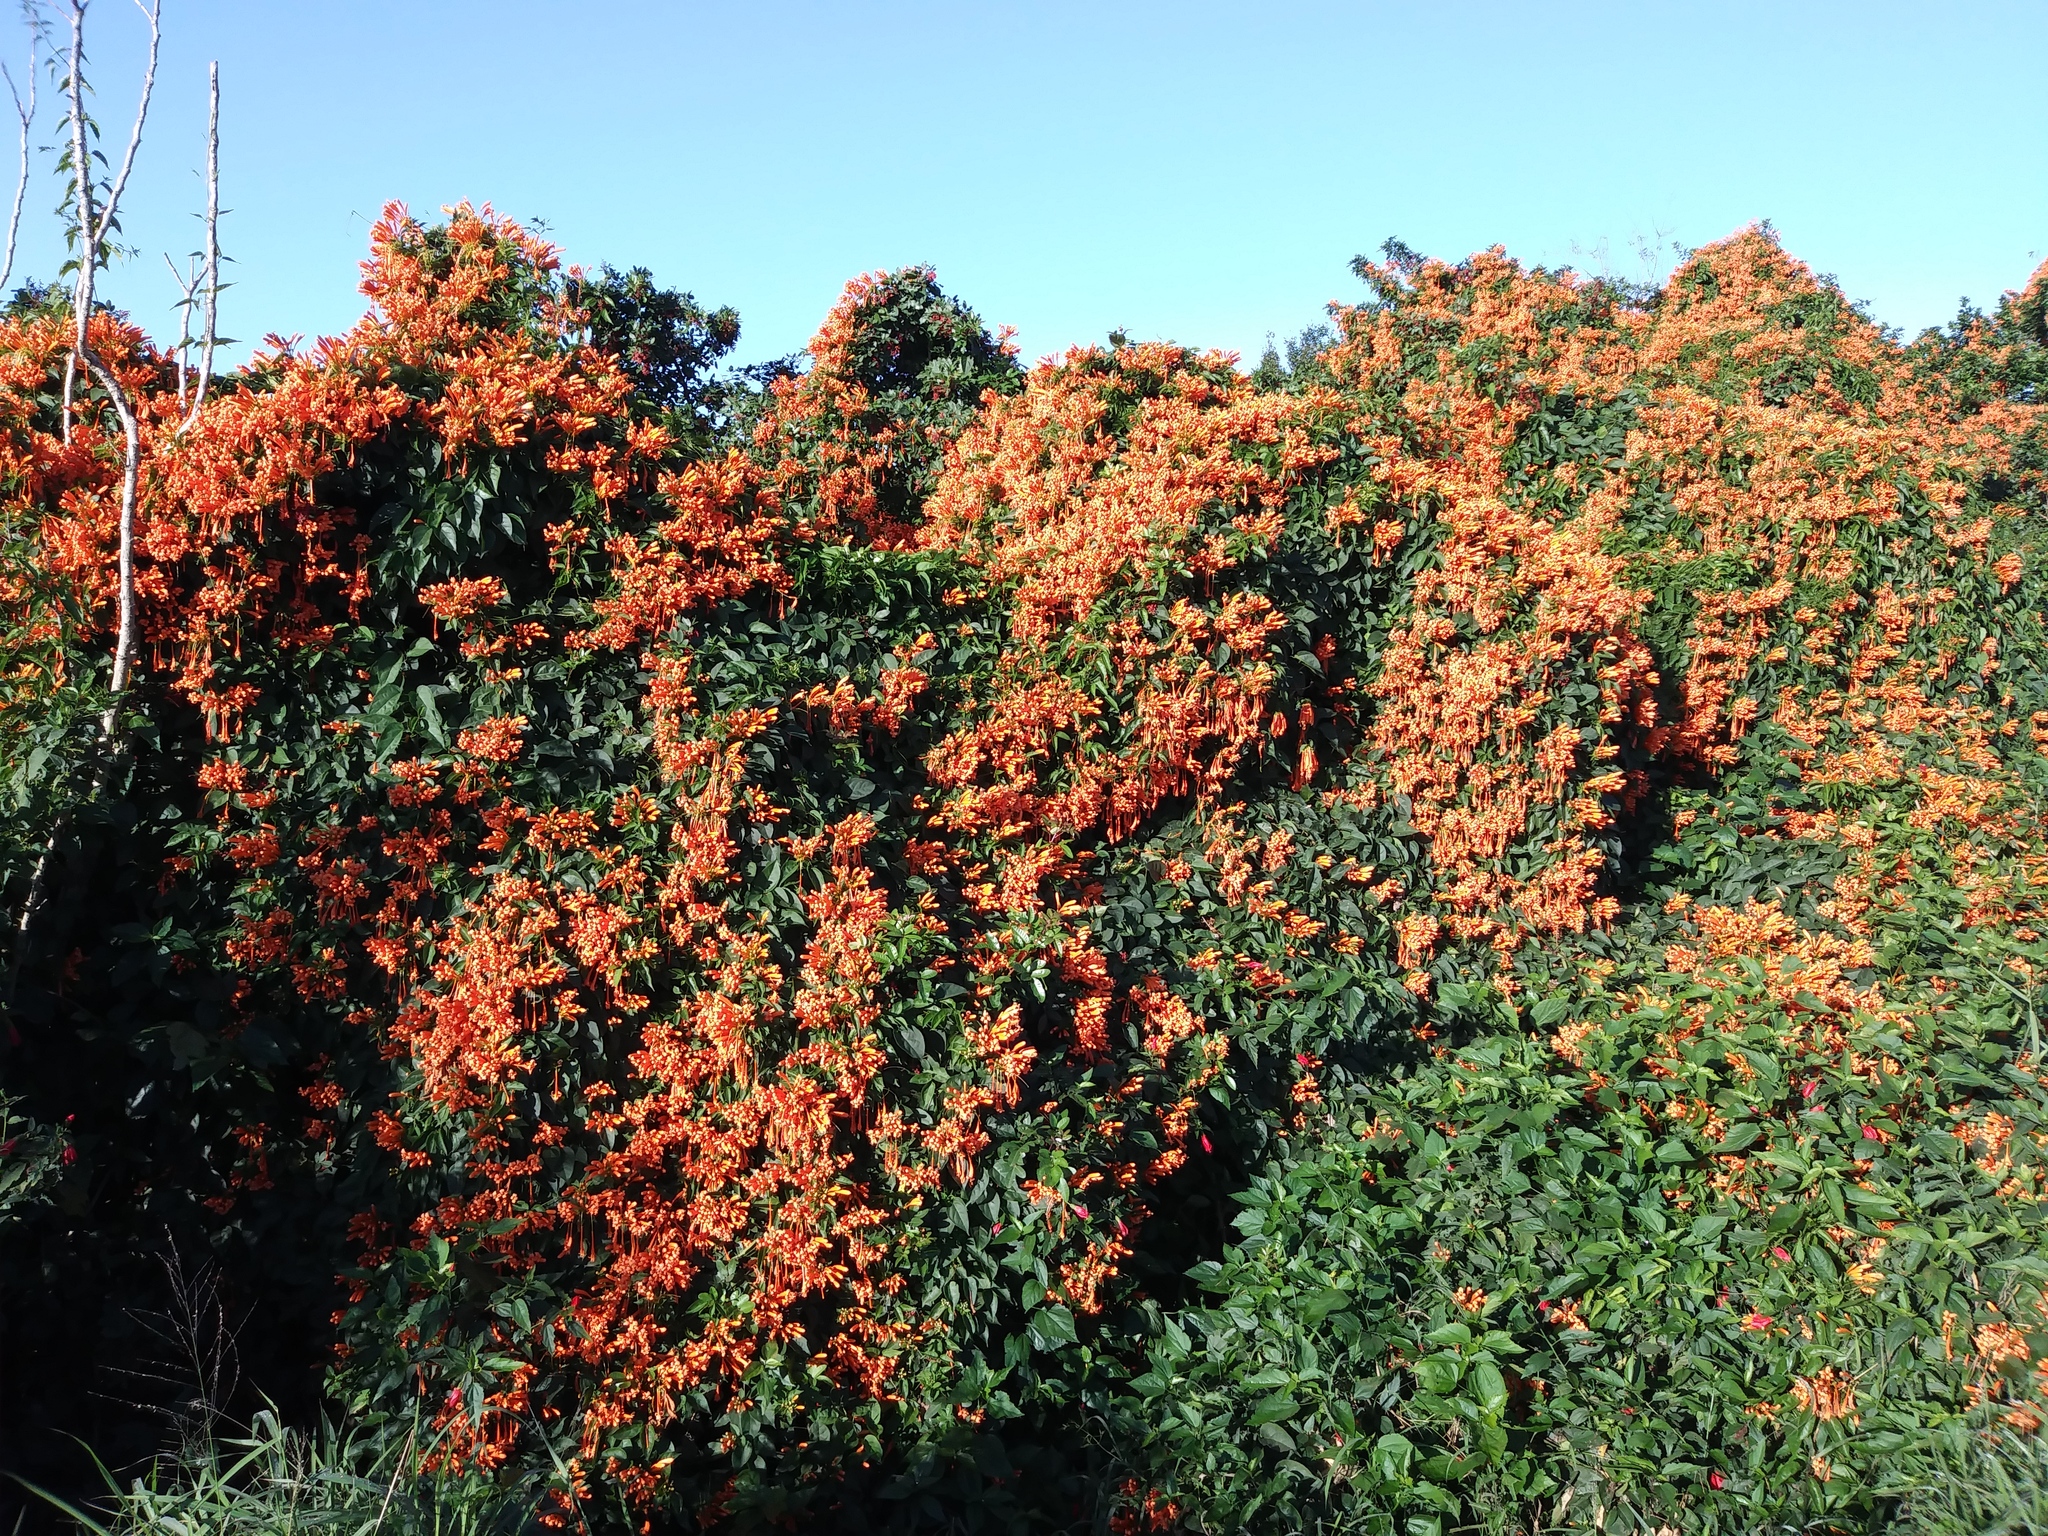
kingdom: Plantae
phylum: Tracheophyta
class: Magnoliopsida
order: Lamiales
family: Bignoniaceae
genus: Pyrostegia
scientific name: Pyrostegia venusta
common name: Flamevine
